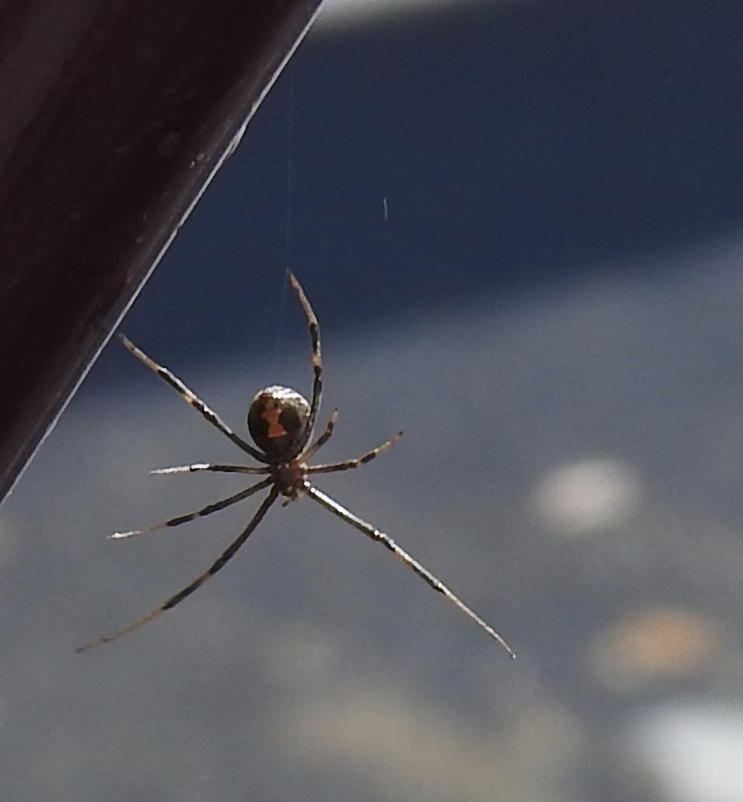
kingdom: Animalia
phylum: Arthropoda
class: Arachnida
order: Araneae
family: Theridiidae
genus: Latrodectus
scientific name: Latrodectus hesperus
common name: Western black widow
